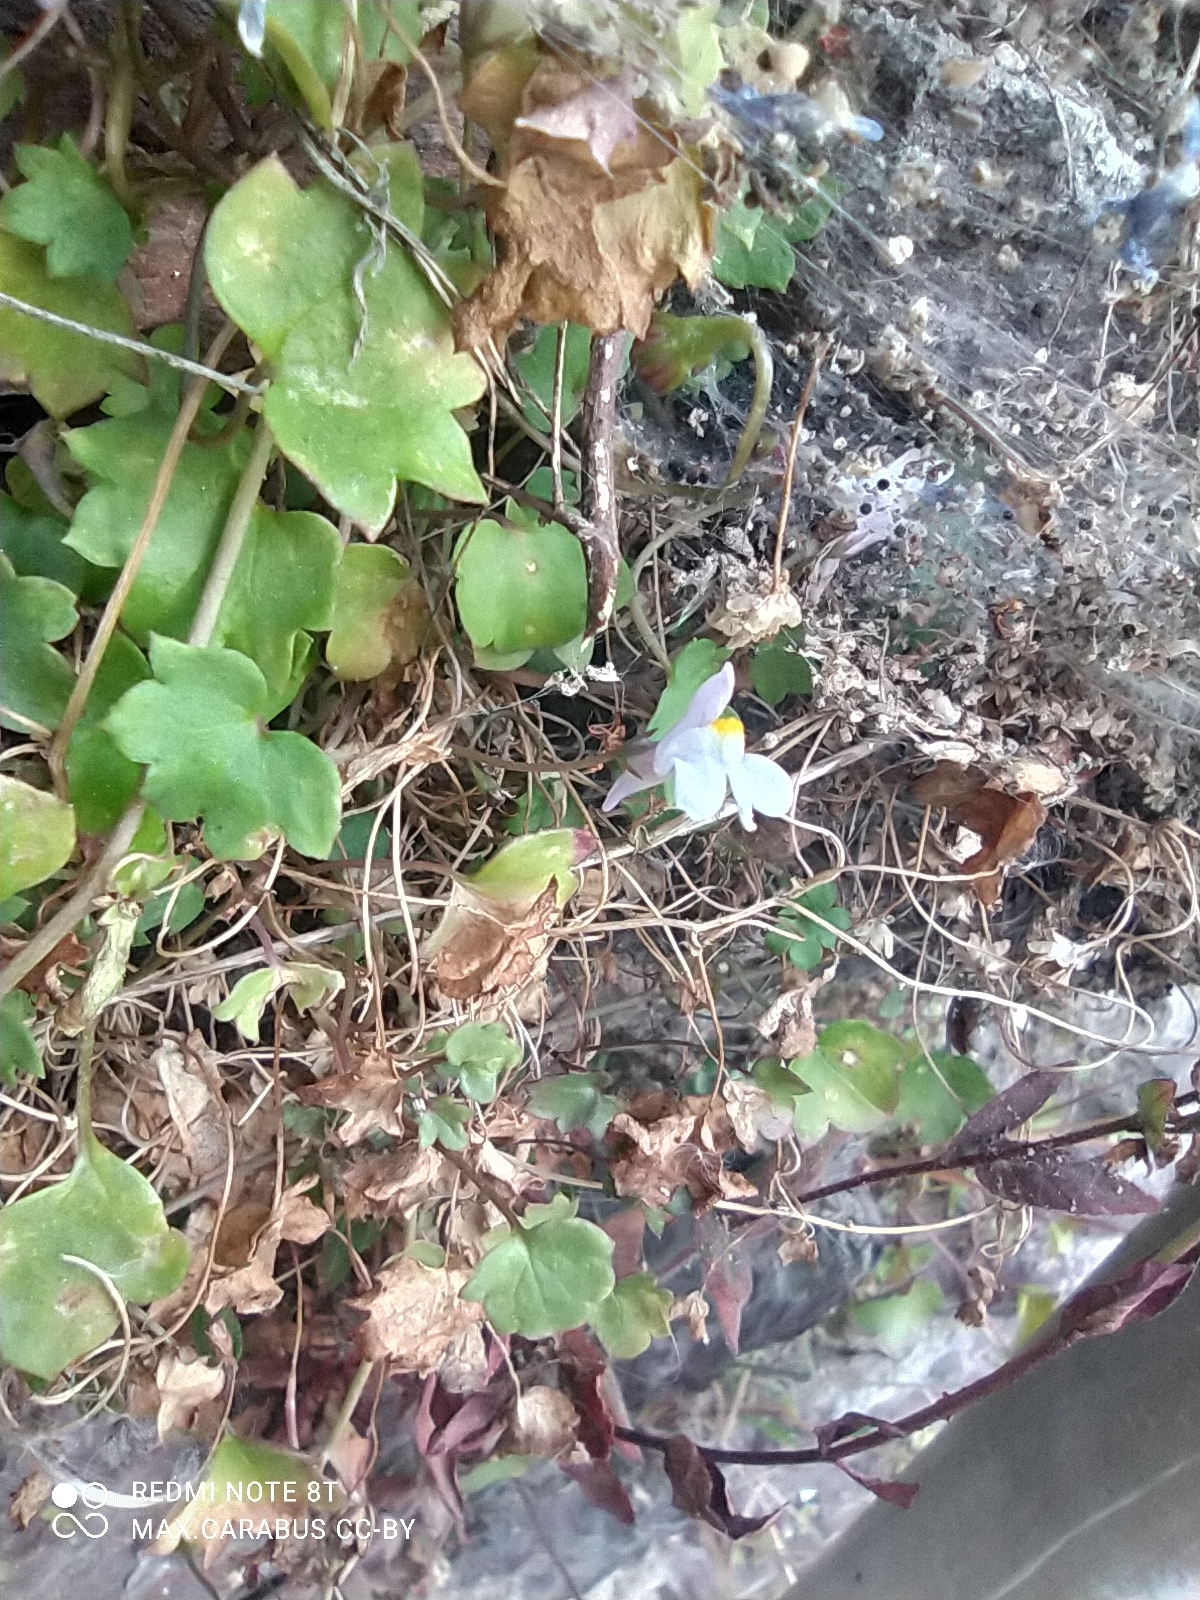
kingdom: Plantae
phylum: Tracheophyta
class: Magnoliopsida
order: Lamiales
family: Plantaginaceae
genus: Cymbalaria
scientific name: Cymbalaria muralis
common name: Ivy-leaved toadflax
